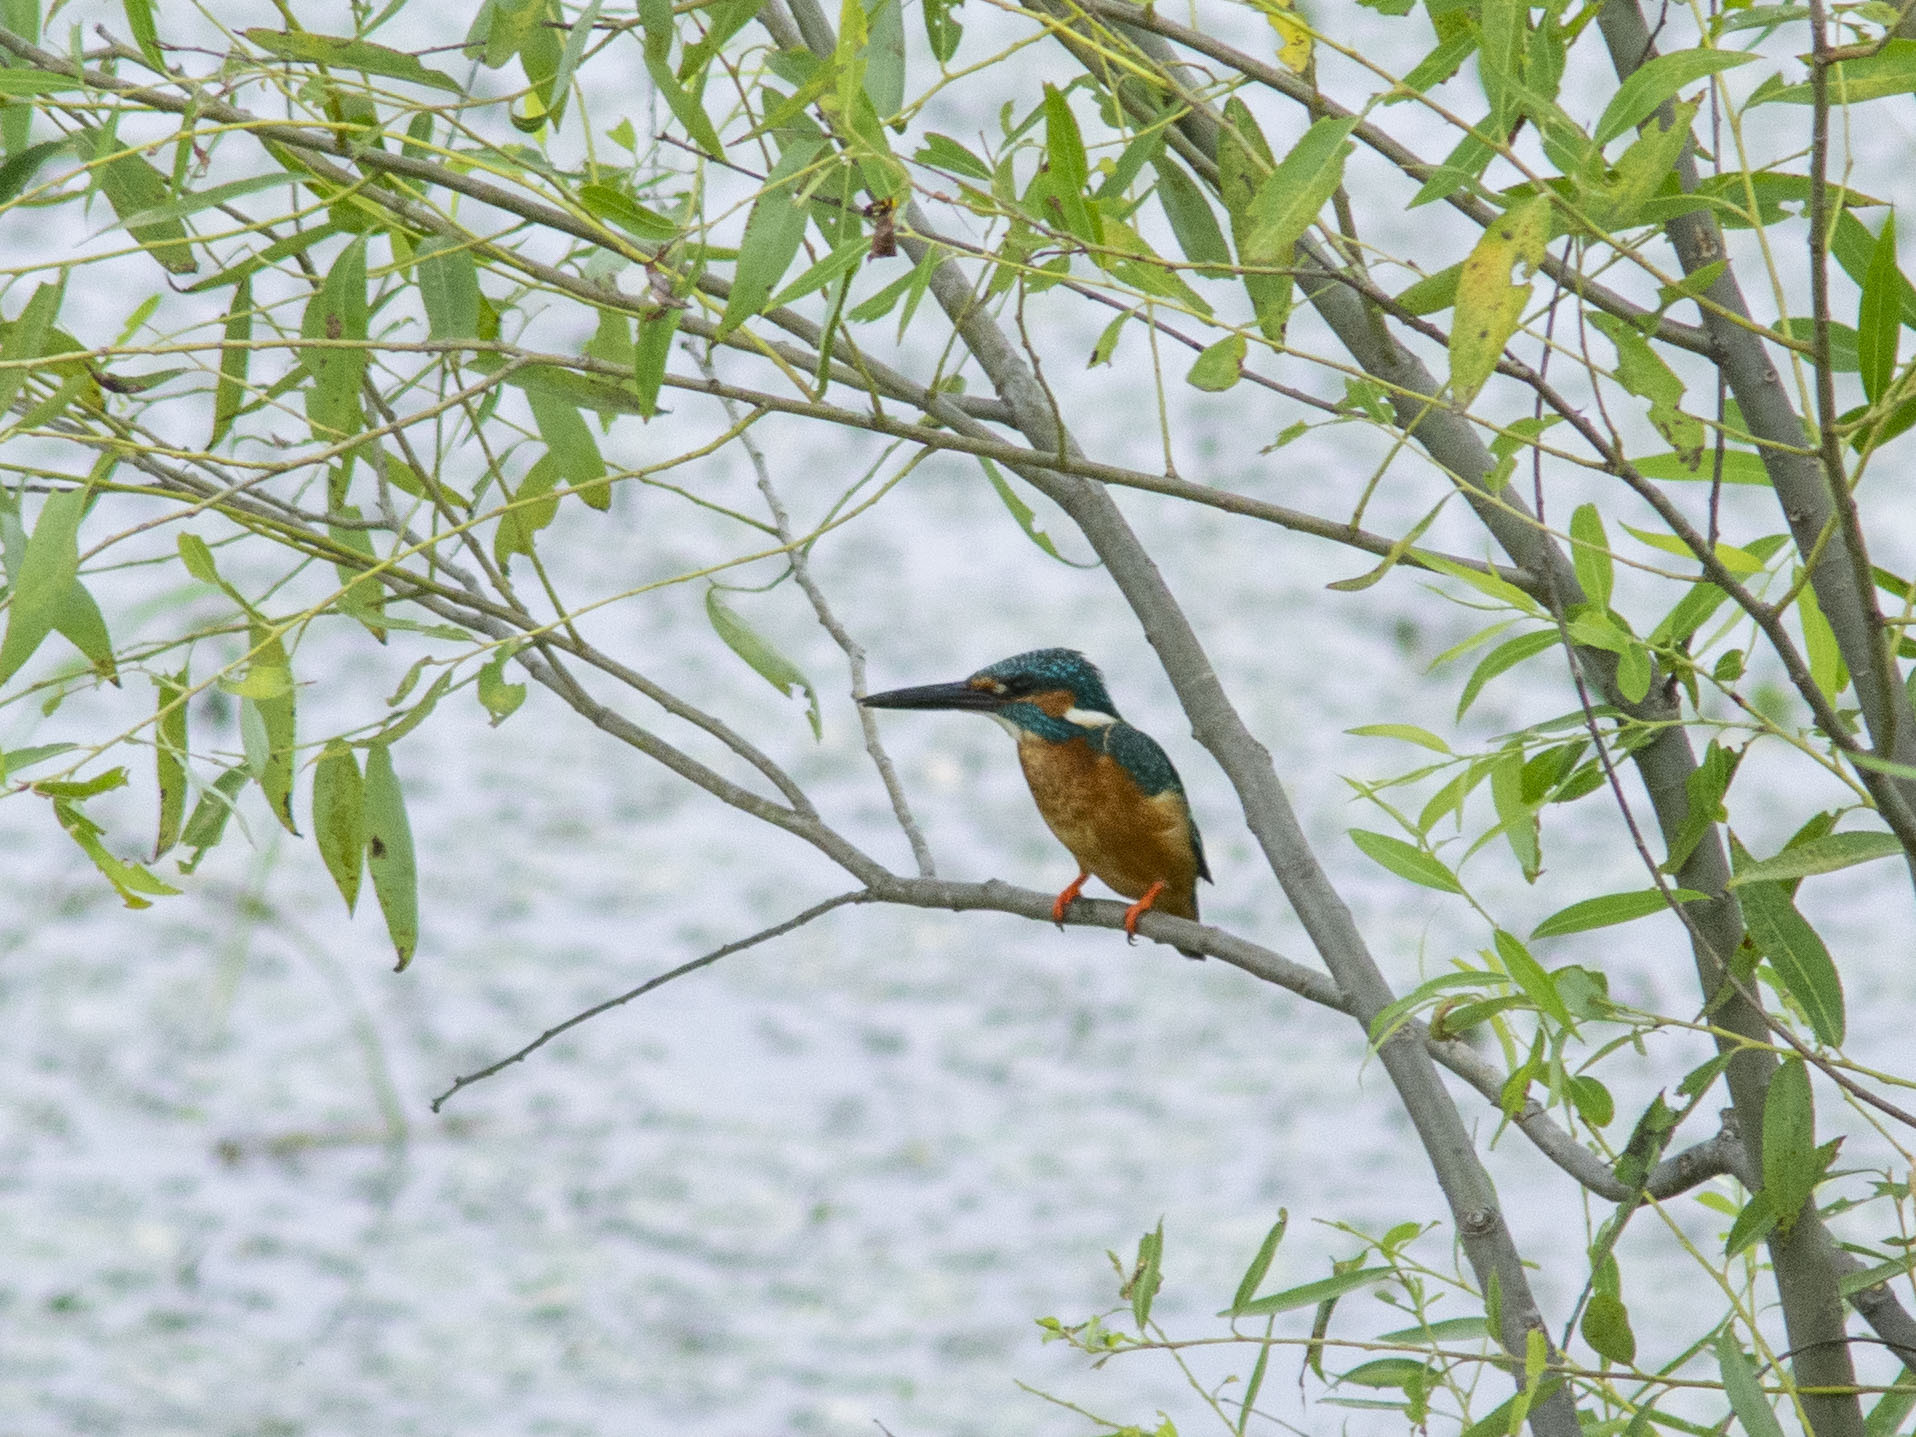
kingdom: Animalia
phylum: Chordata
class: Aves
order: Coraciiformes
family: Alcedinidae
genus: Alcedo
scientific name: Alcedo atthis
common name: Common kingfisher
